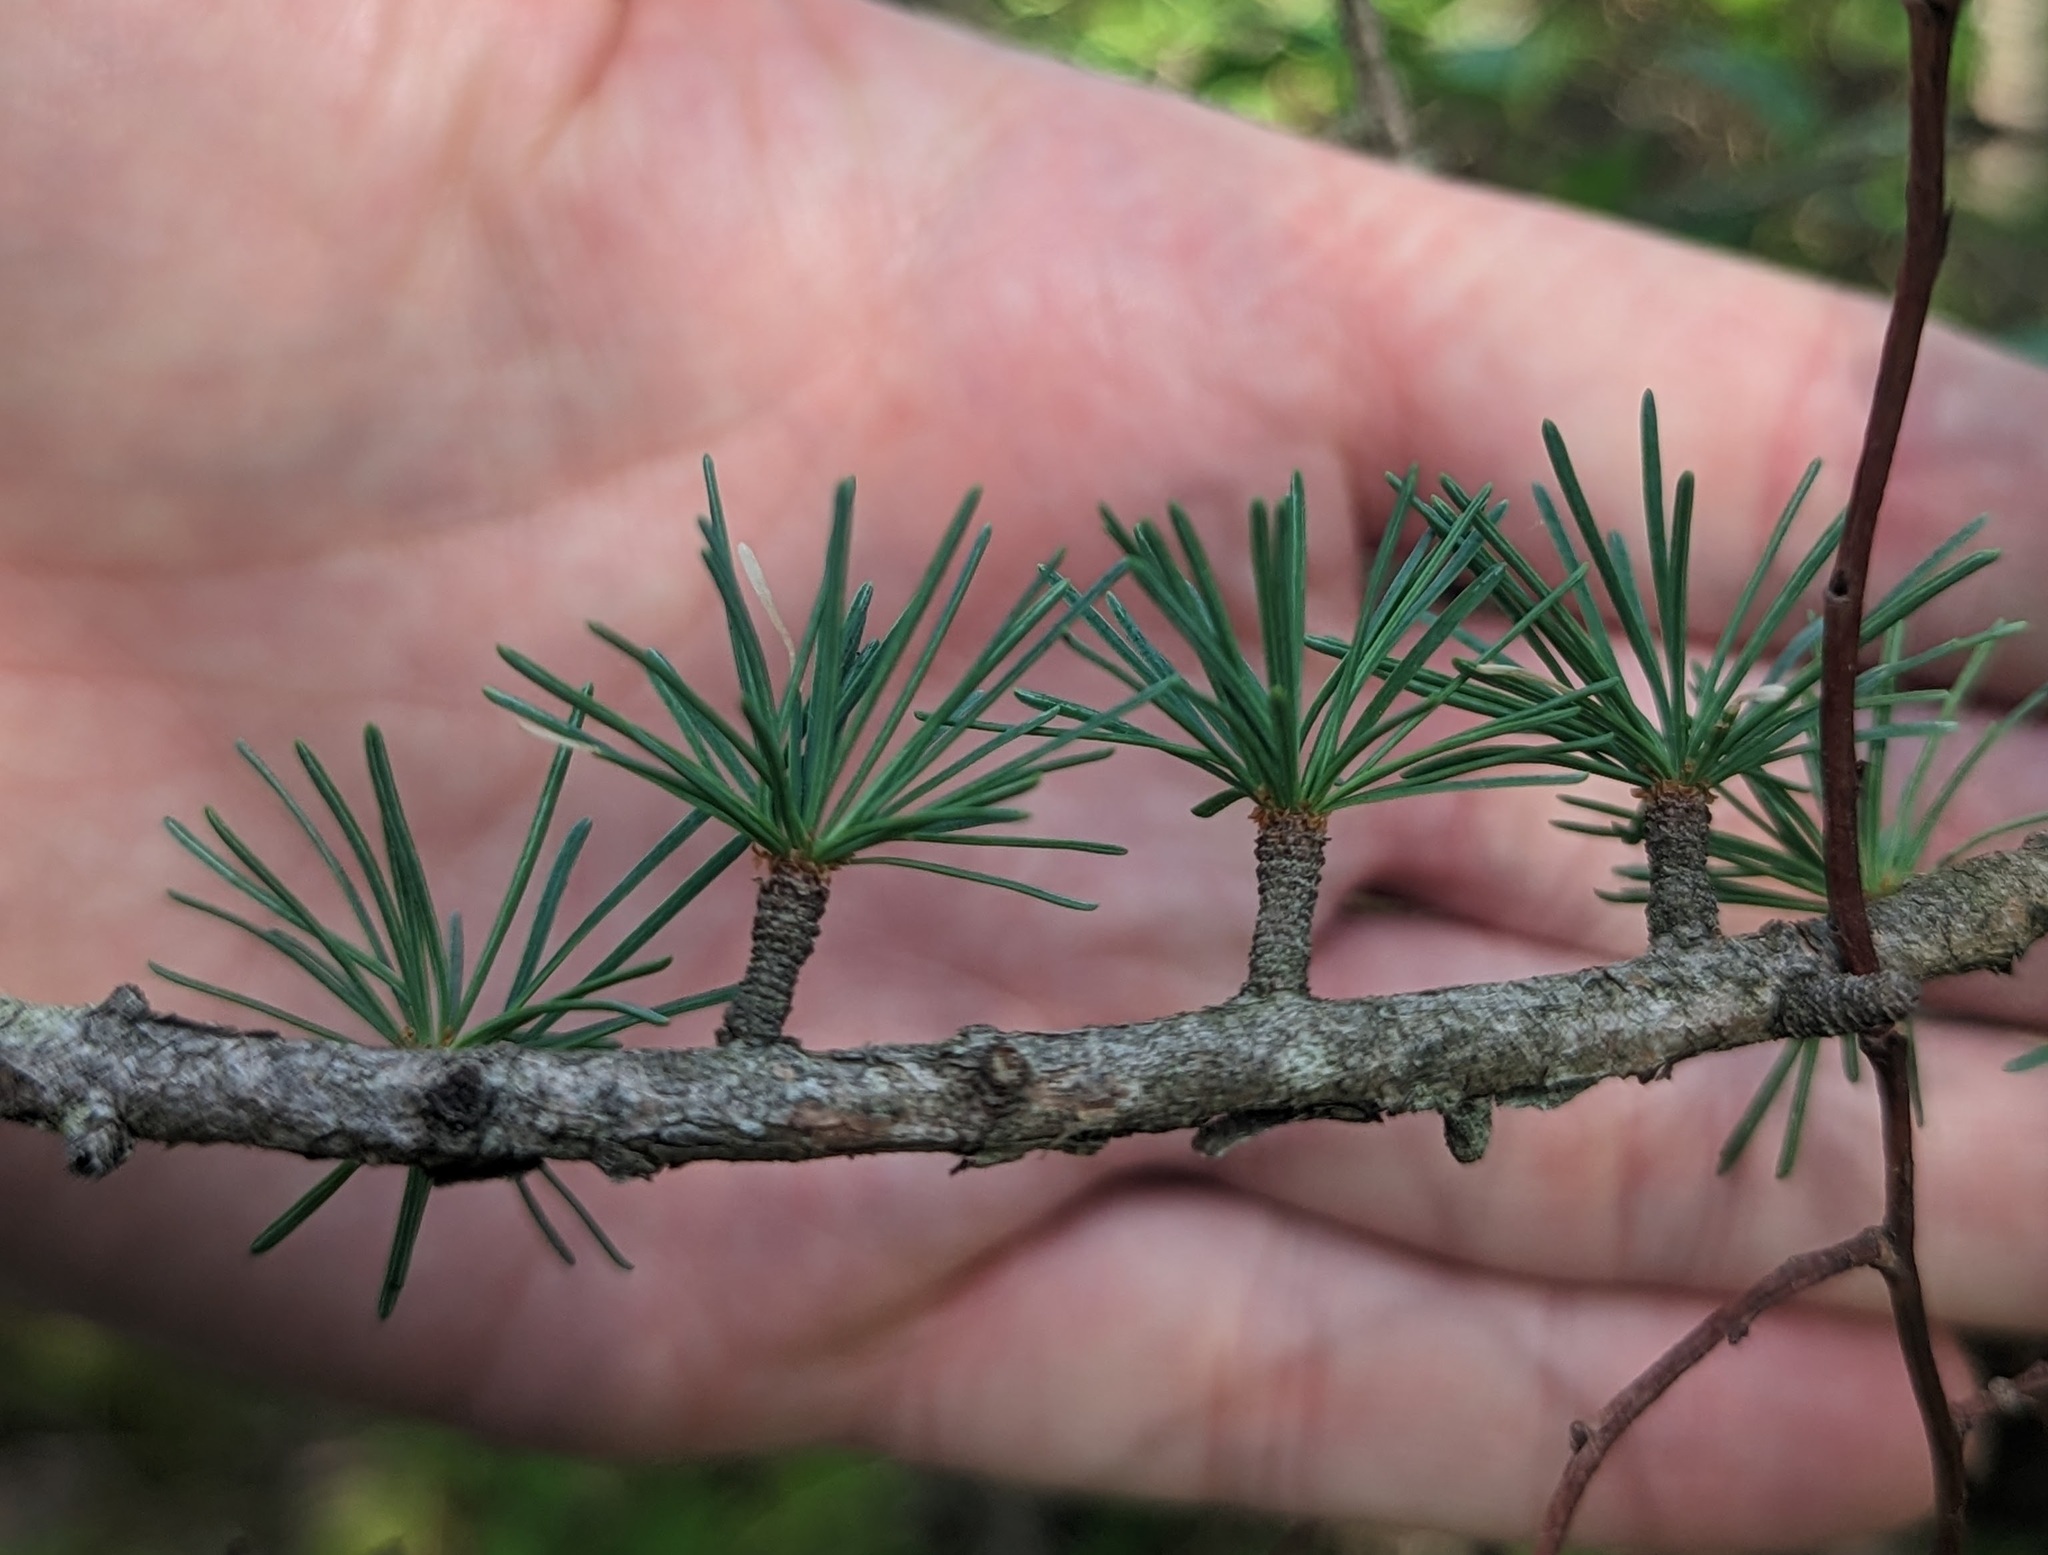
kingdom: Plantae
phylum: Tracheophyta
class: Pinopsida
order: Pinales
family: Pinaceae
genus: Larix
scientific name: Larix laricina
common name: American larch
